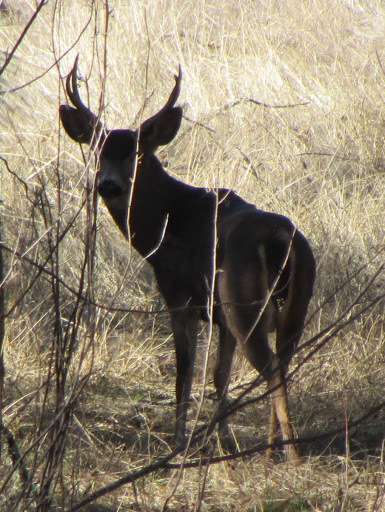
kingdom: Animalia
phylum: Chordata
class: Mammalia
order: Artiodactyla
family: Cervidae
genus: Odocoileus
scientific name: Odocoileus hemionus
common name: Mule deer
